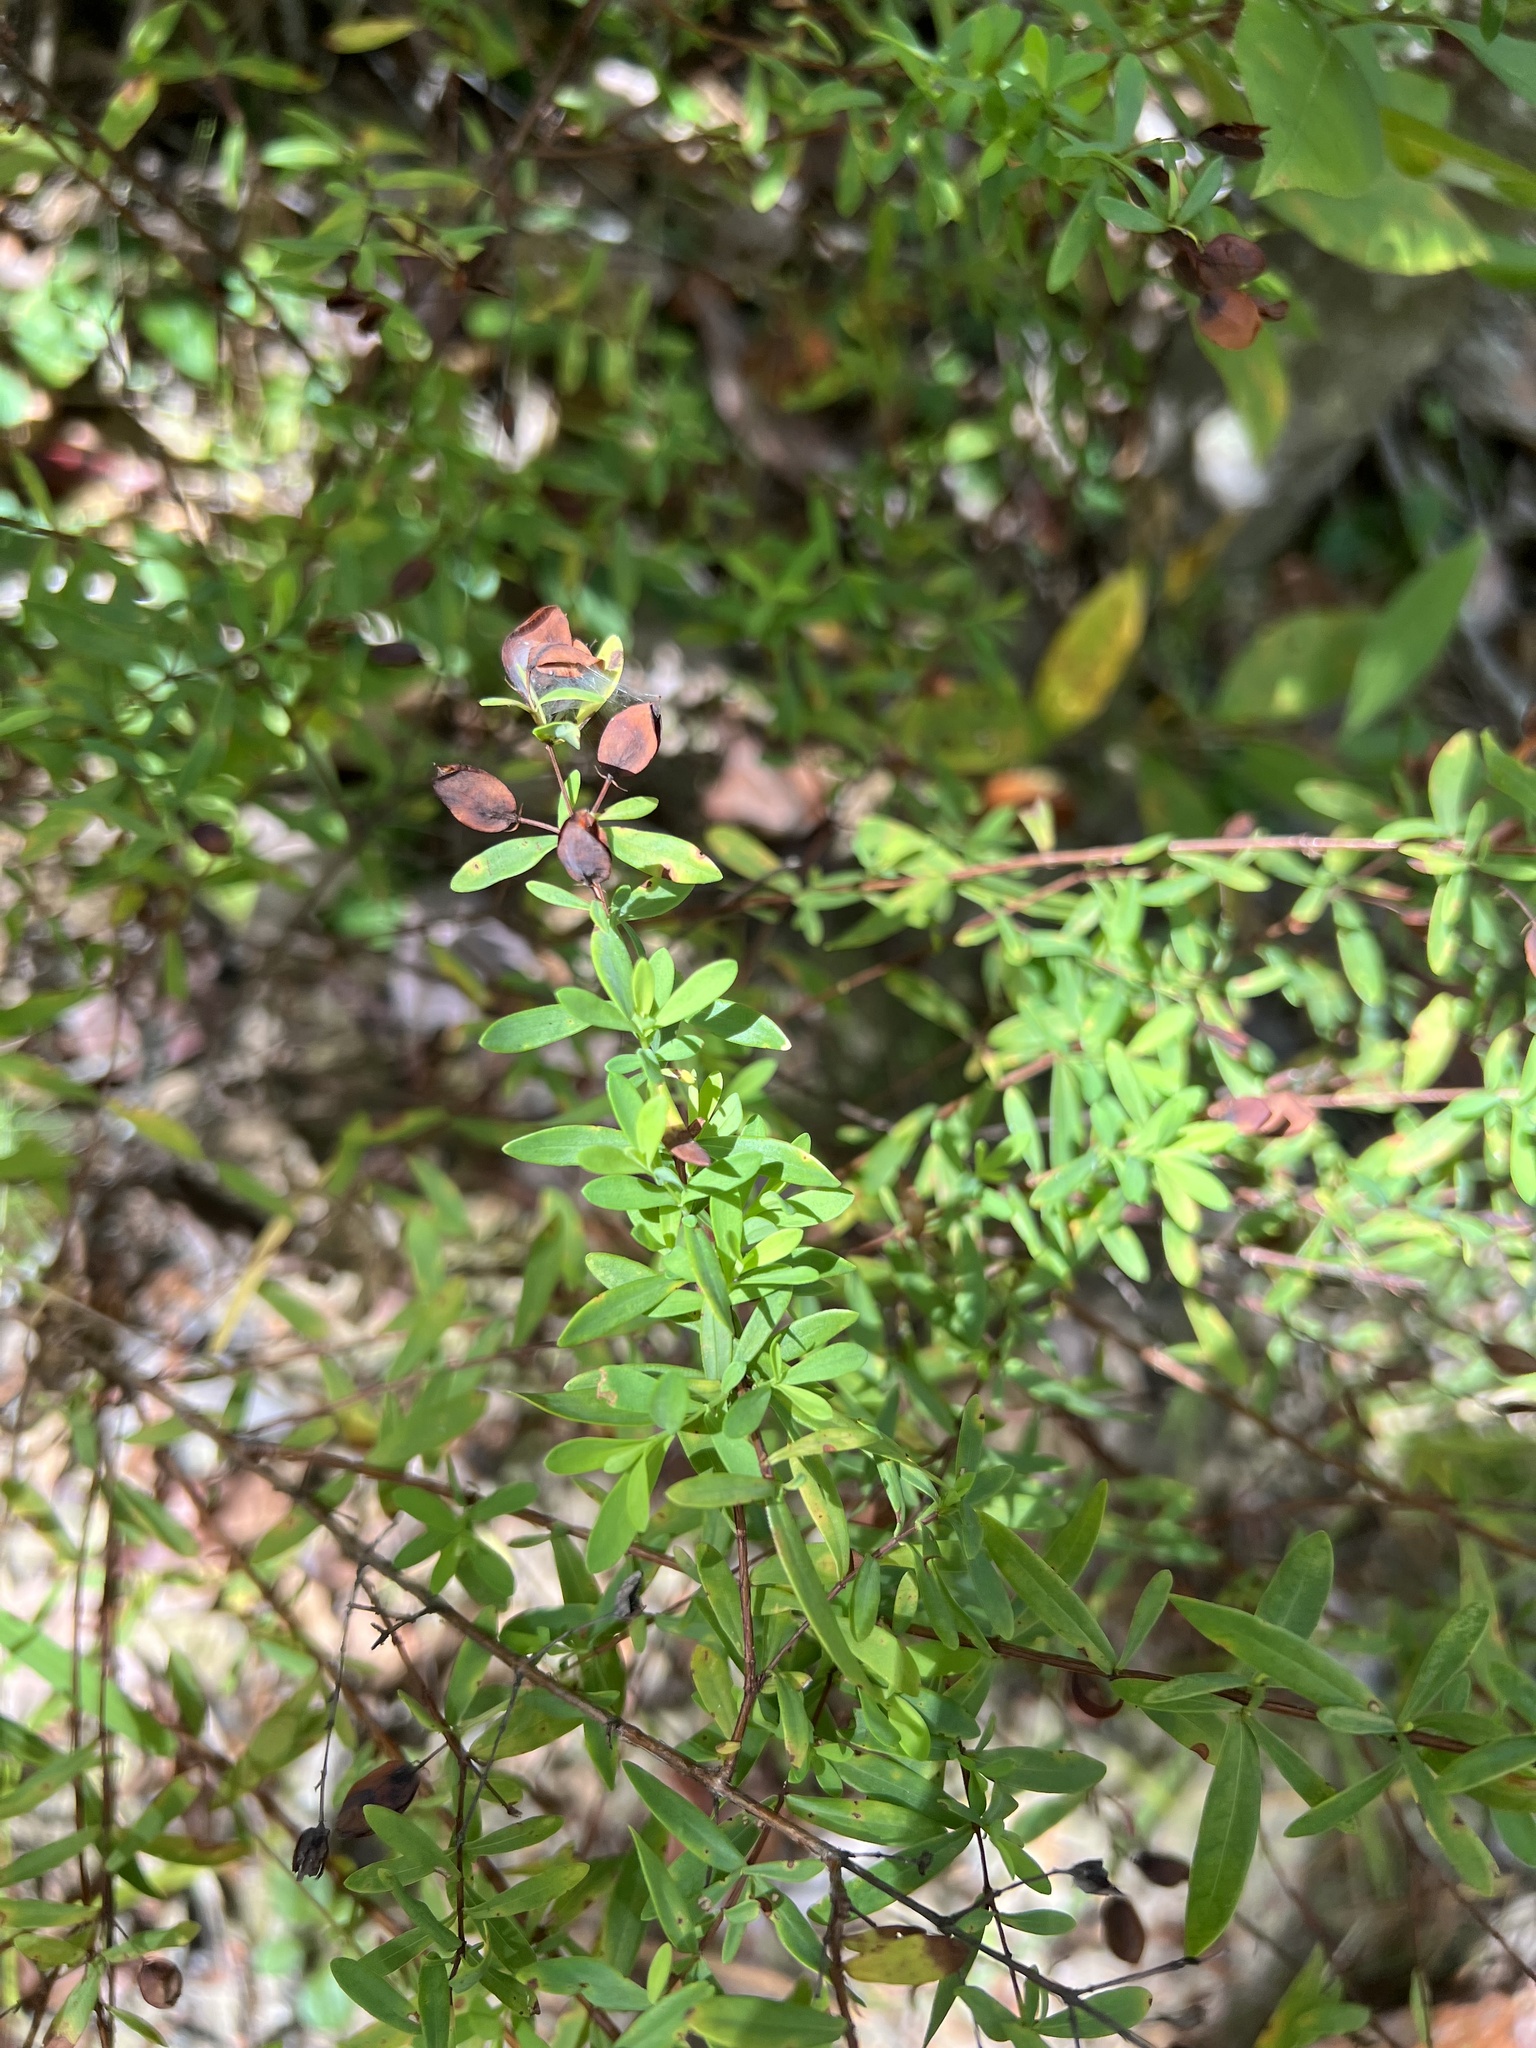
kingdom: Plantae
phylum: Tracheophyta
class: Magnoliopsida
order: Malpighiales
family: Hypericaceae
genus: Hypericum
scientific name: Hypericum hypericoides
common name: St. andrew's cross
